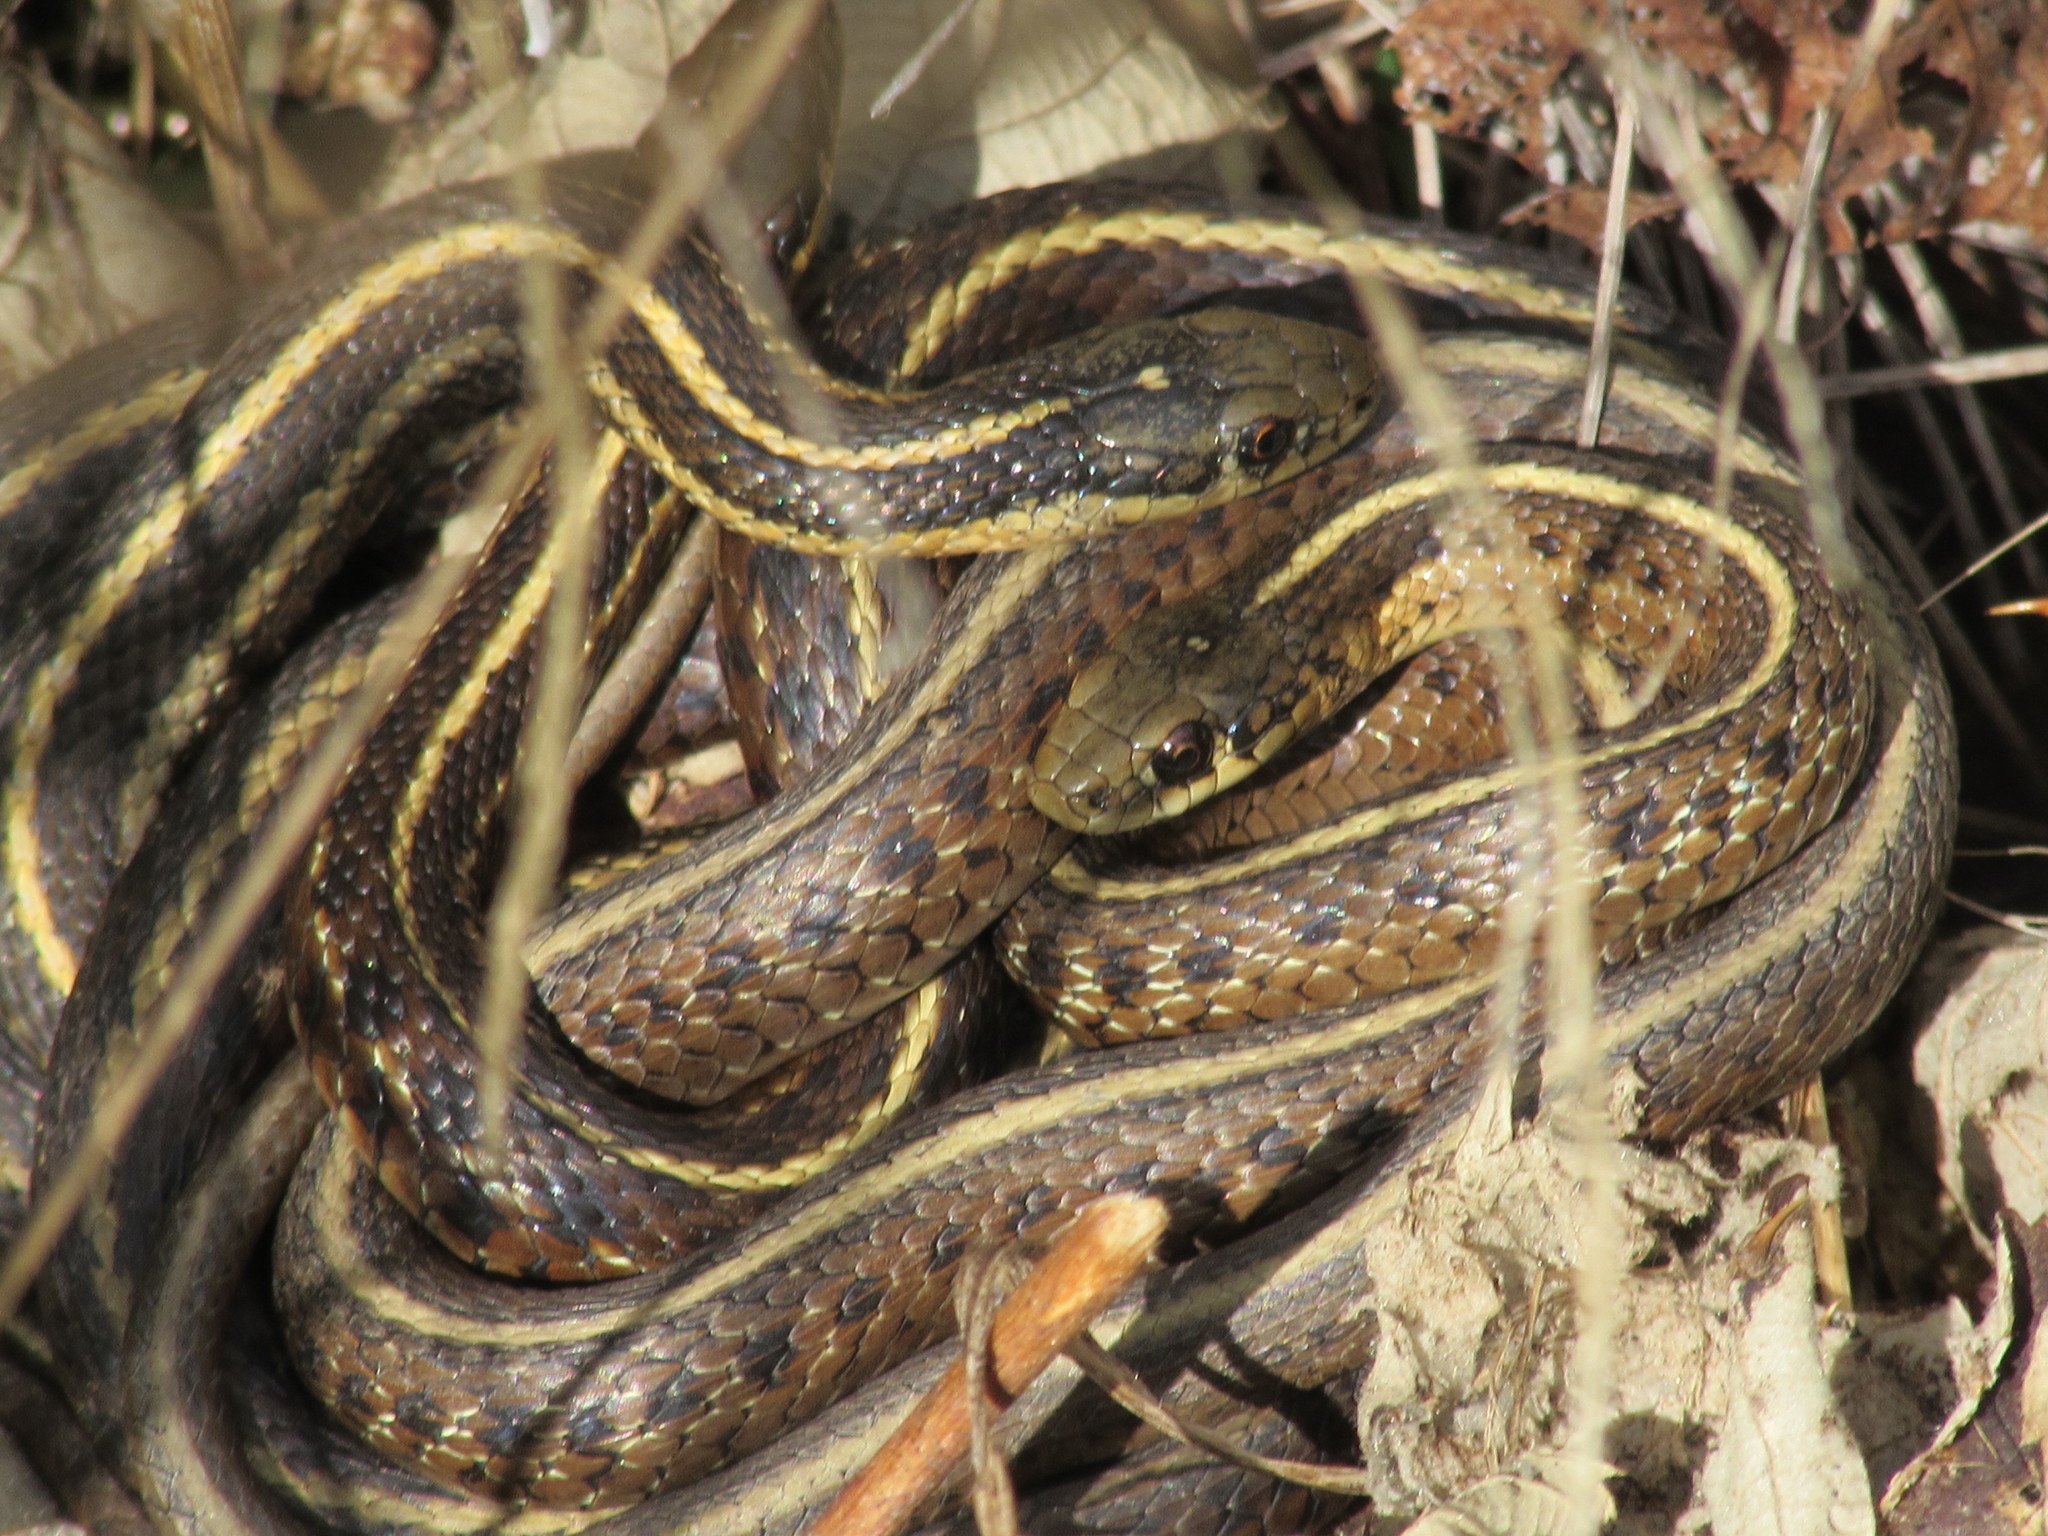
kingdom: Animalia
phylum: Chordata
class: Squamata
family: Colubridae
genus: Thamnophis
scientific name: Thamnophis ordinoides
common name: Northwestern garter snake
